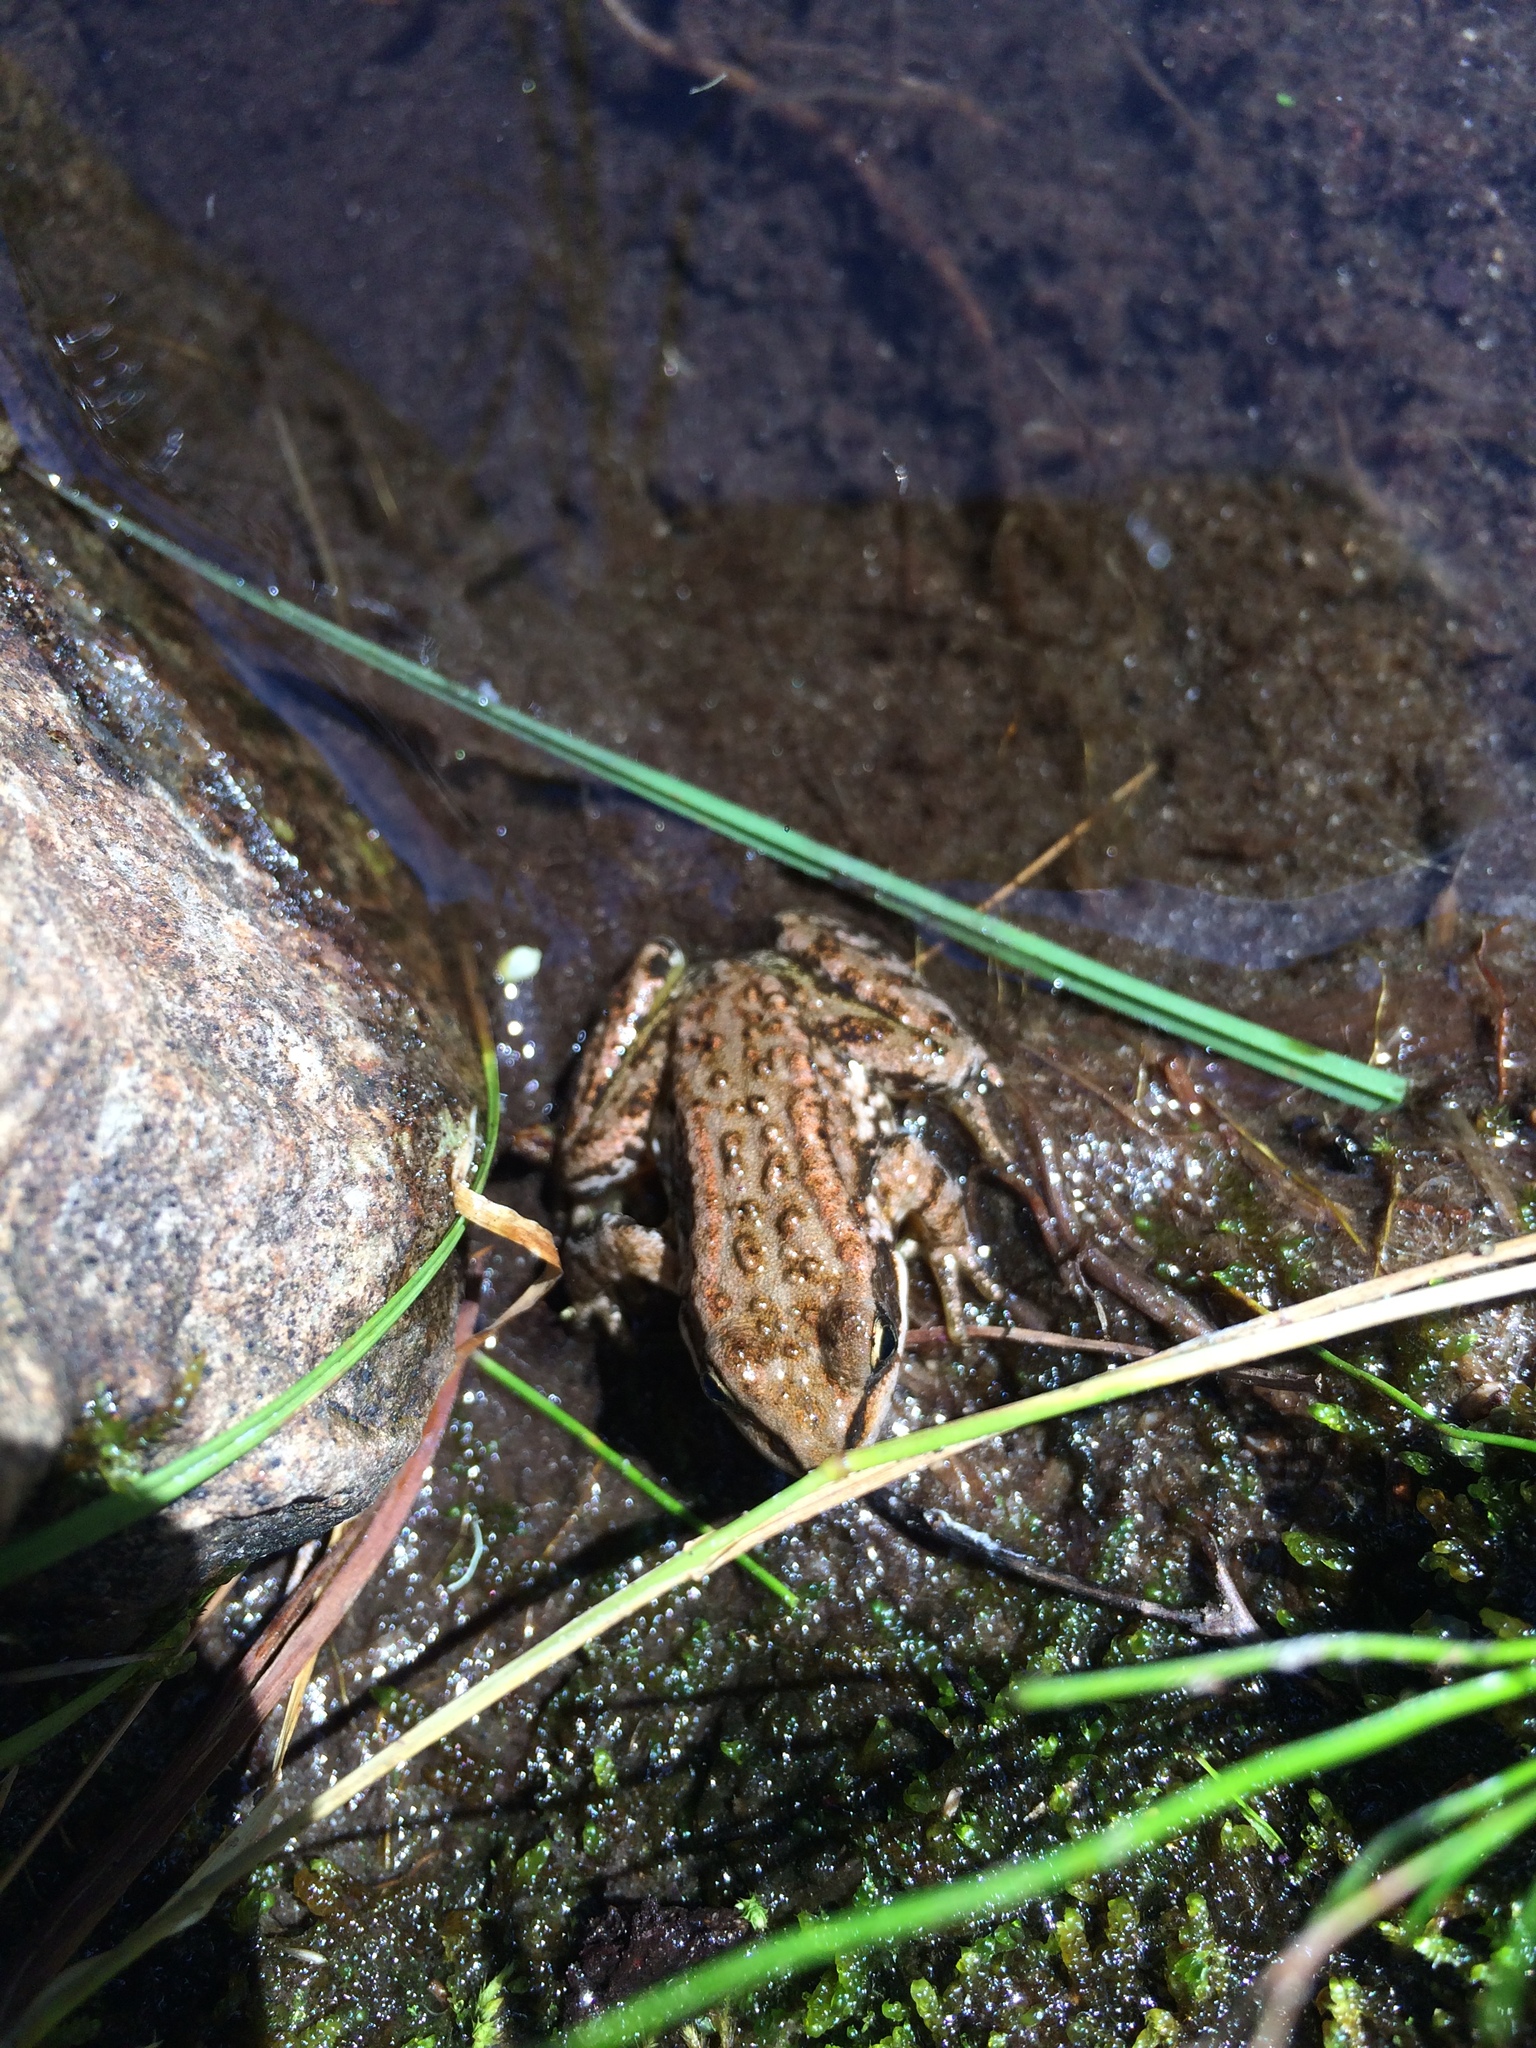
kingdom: Animalia
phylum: Chordata
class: Amphibia
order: Anura
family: Ranidae
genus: Rana
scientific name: Rana cascadae
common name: Cascades frog
